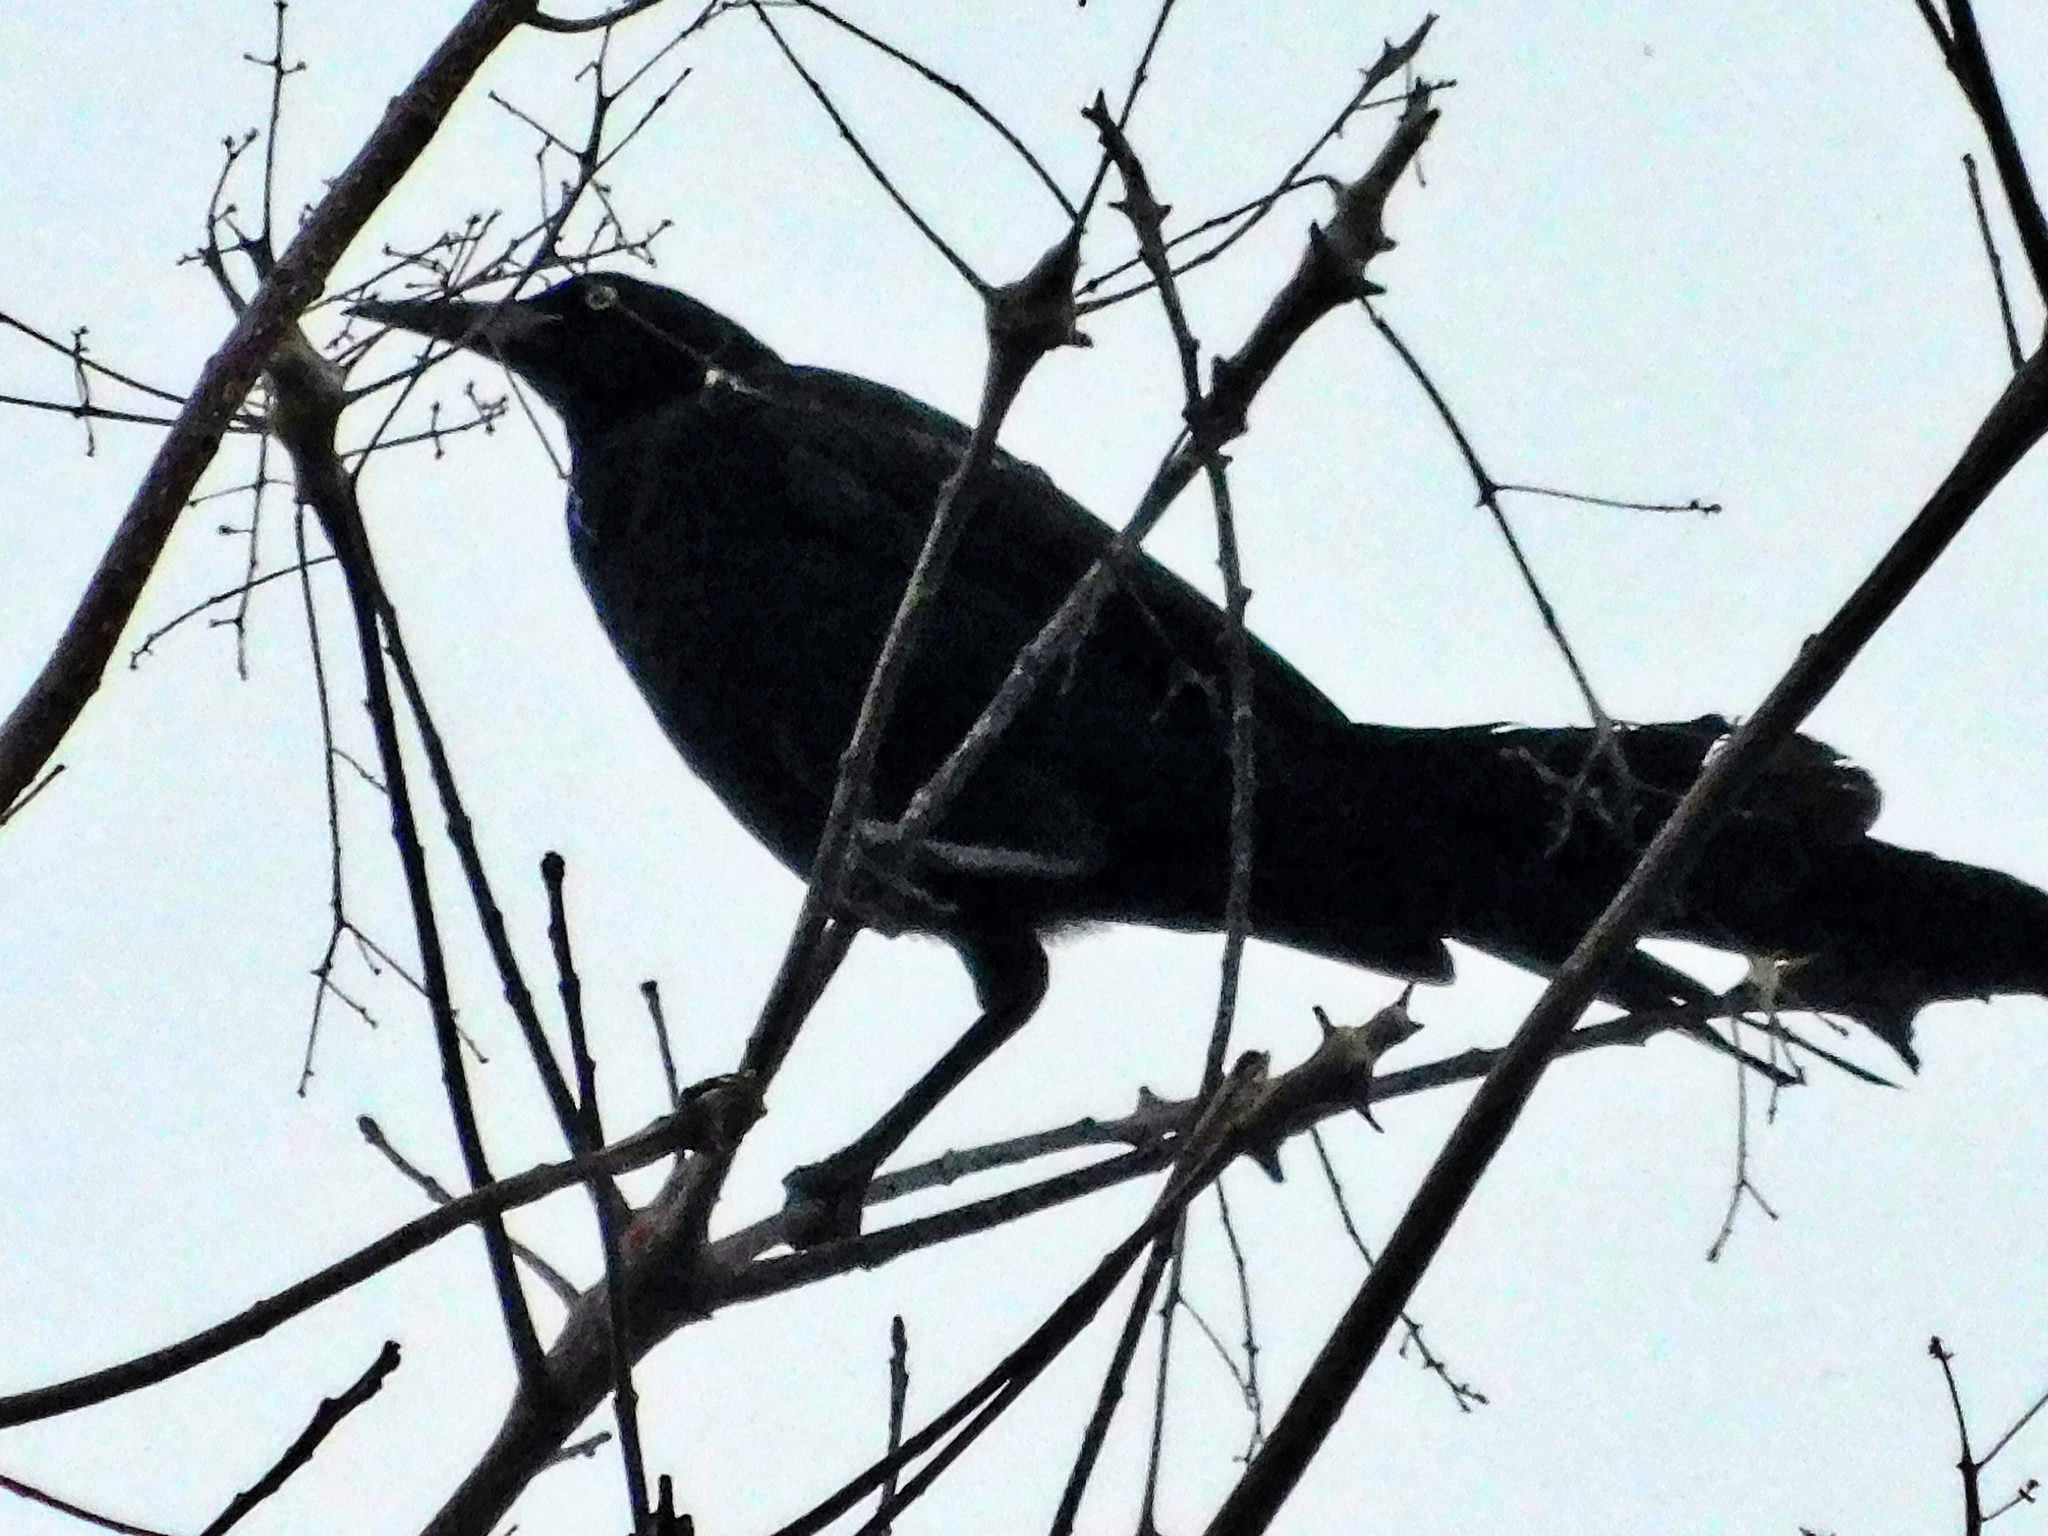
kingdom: Animalia
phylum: Chordata
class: Aves
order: Passeriformes
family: Icteridae
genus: Quiscalus
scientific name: Quiscalus mexicanus
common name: Great-tailed grackle
